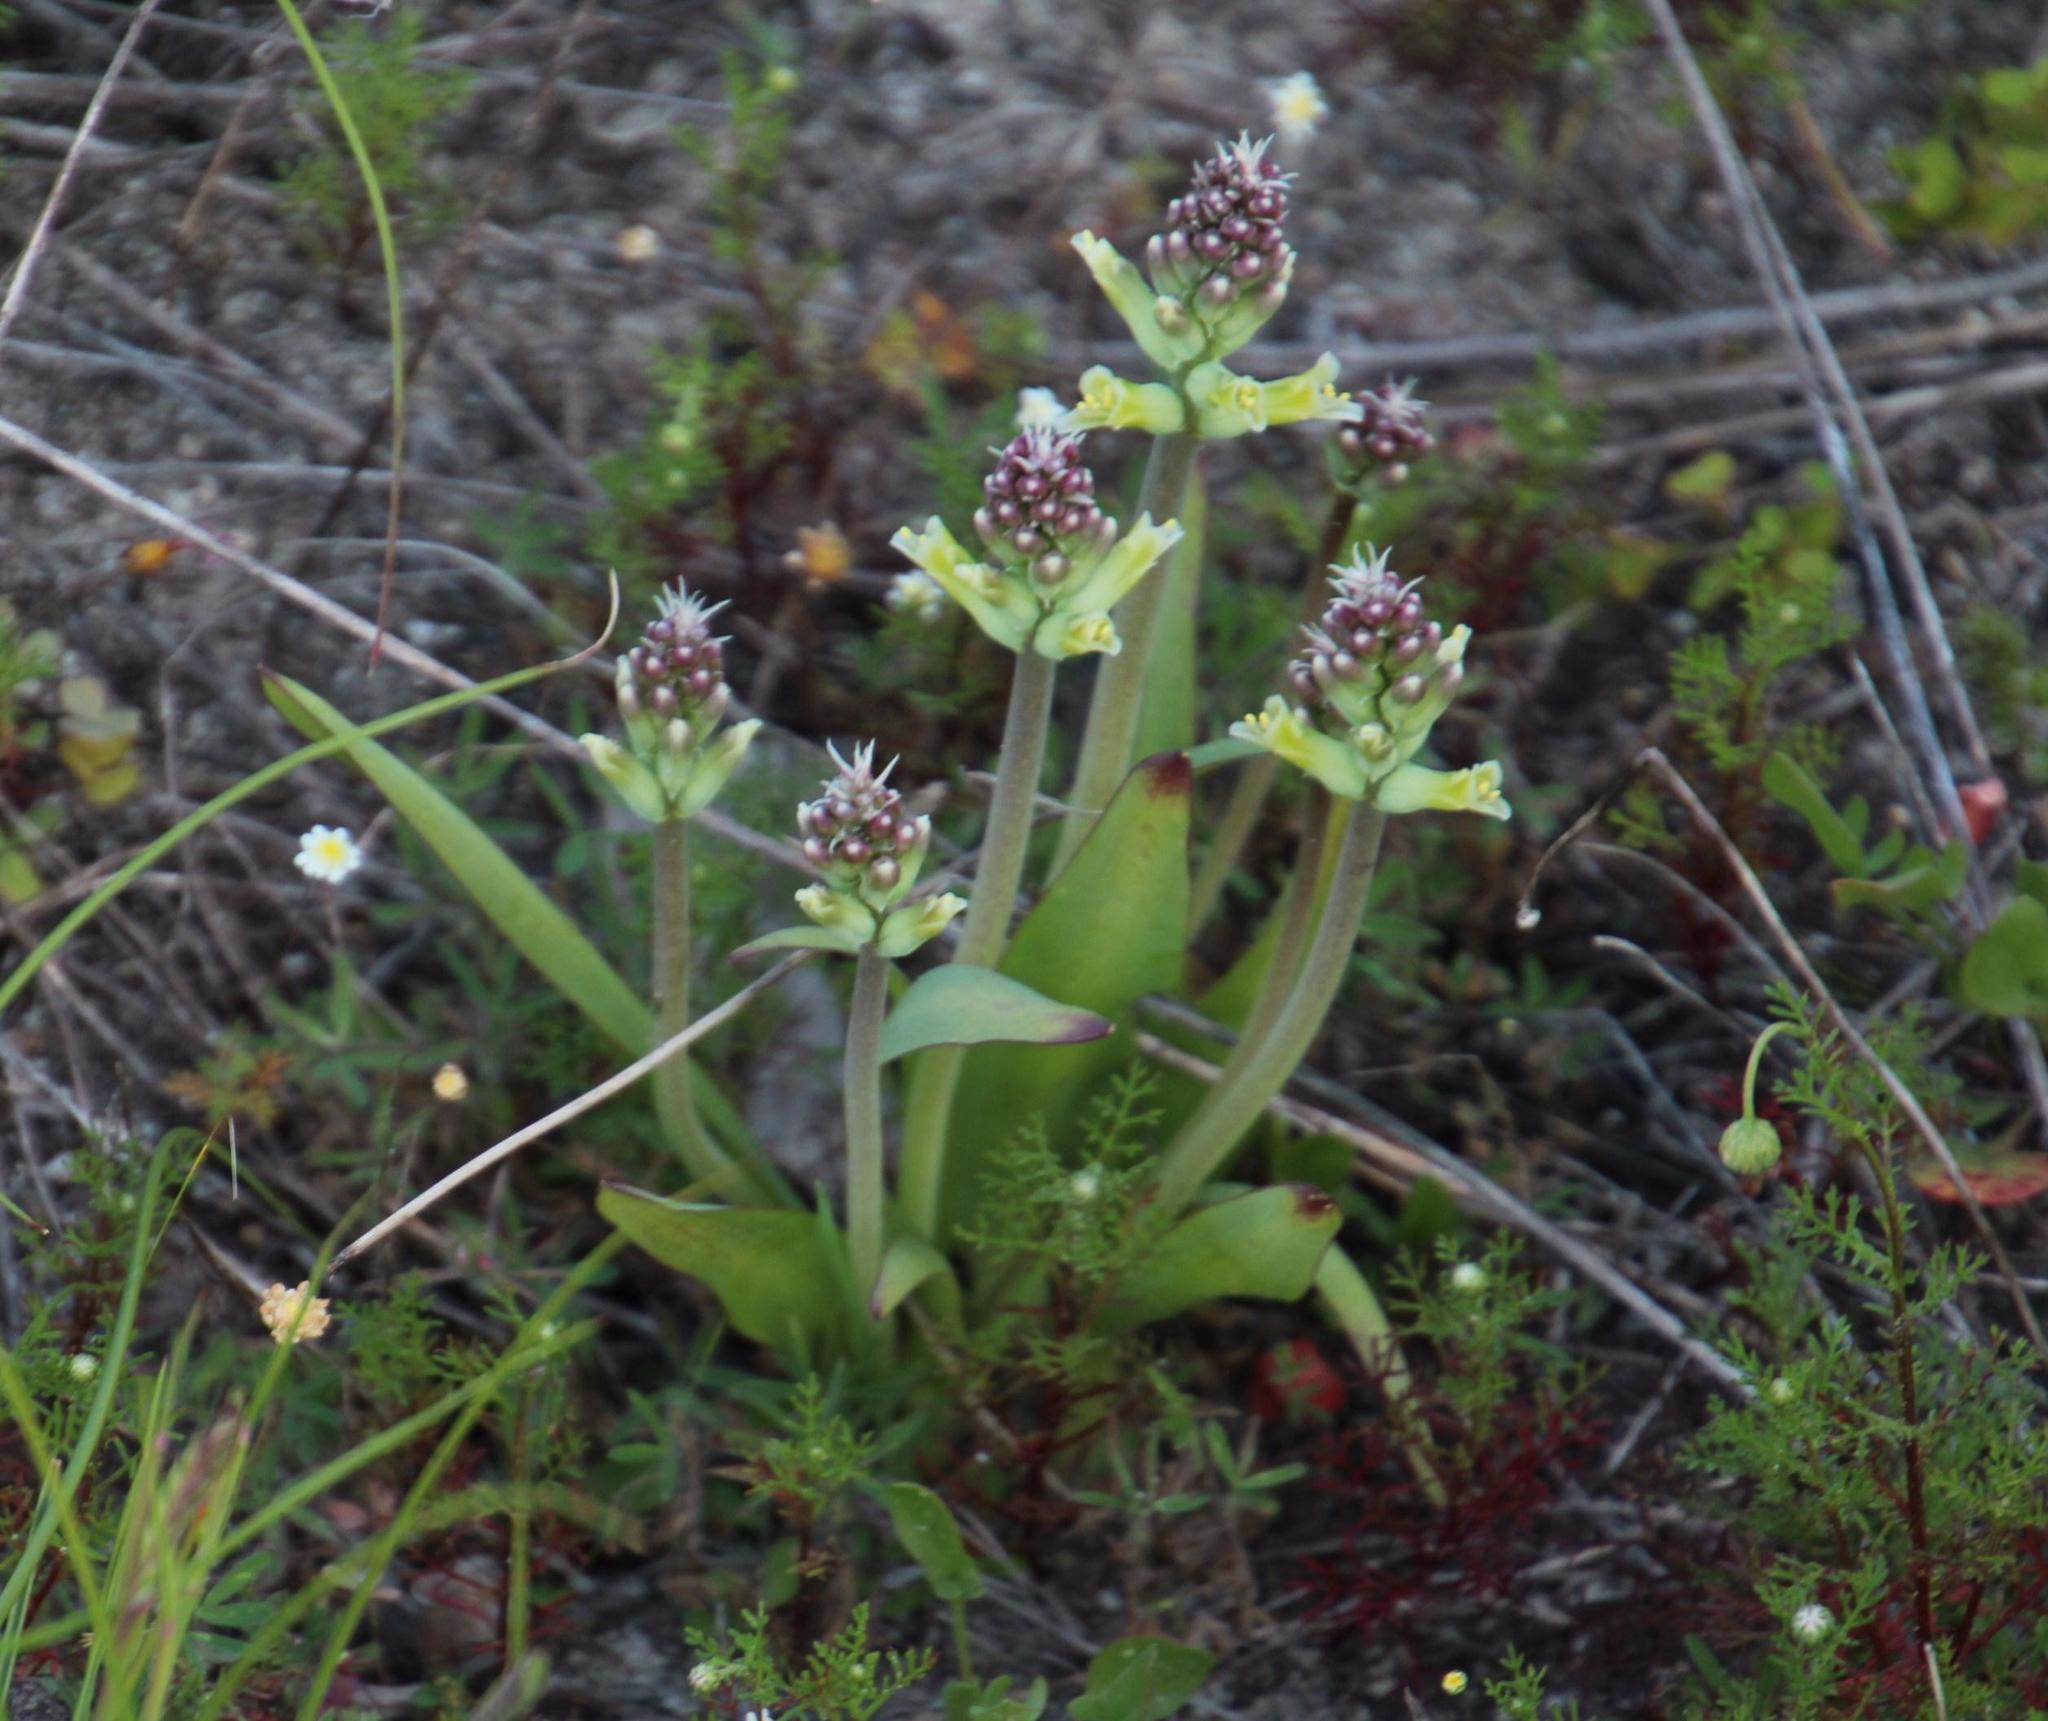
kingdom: Plantae
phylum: Tracheophyta
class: Liliopsida
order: Asparagales
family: Asparagaceae
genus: Lachenalia
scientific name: Lachenalia orchioides
